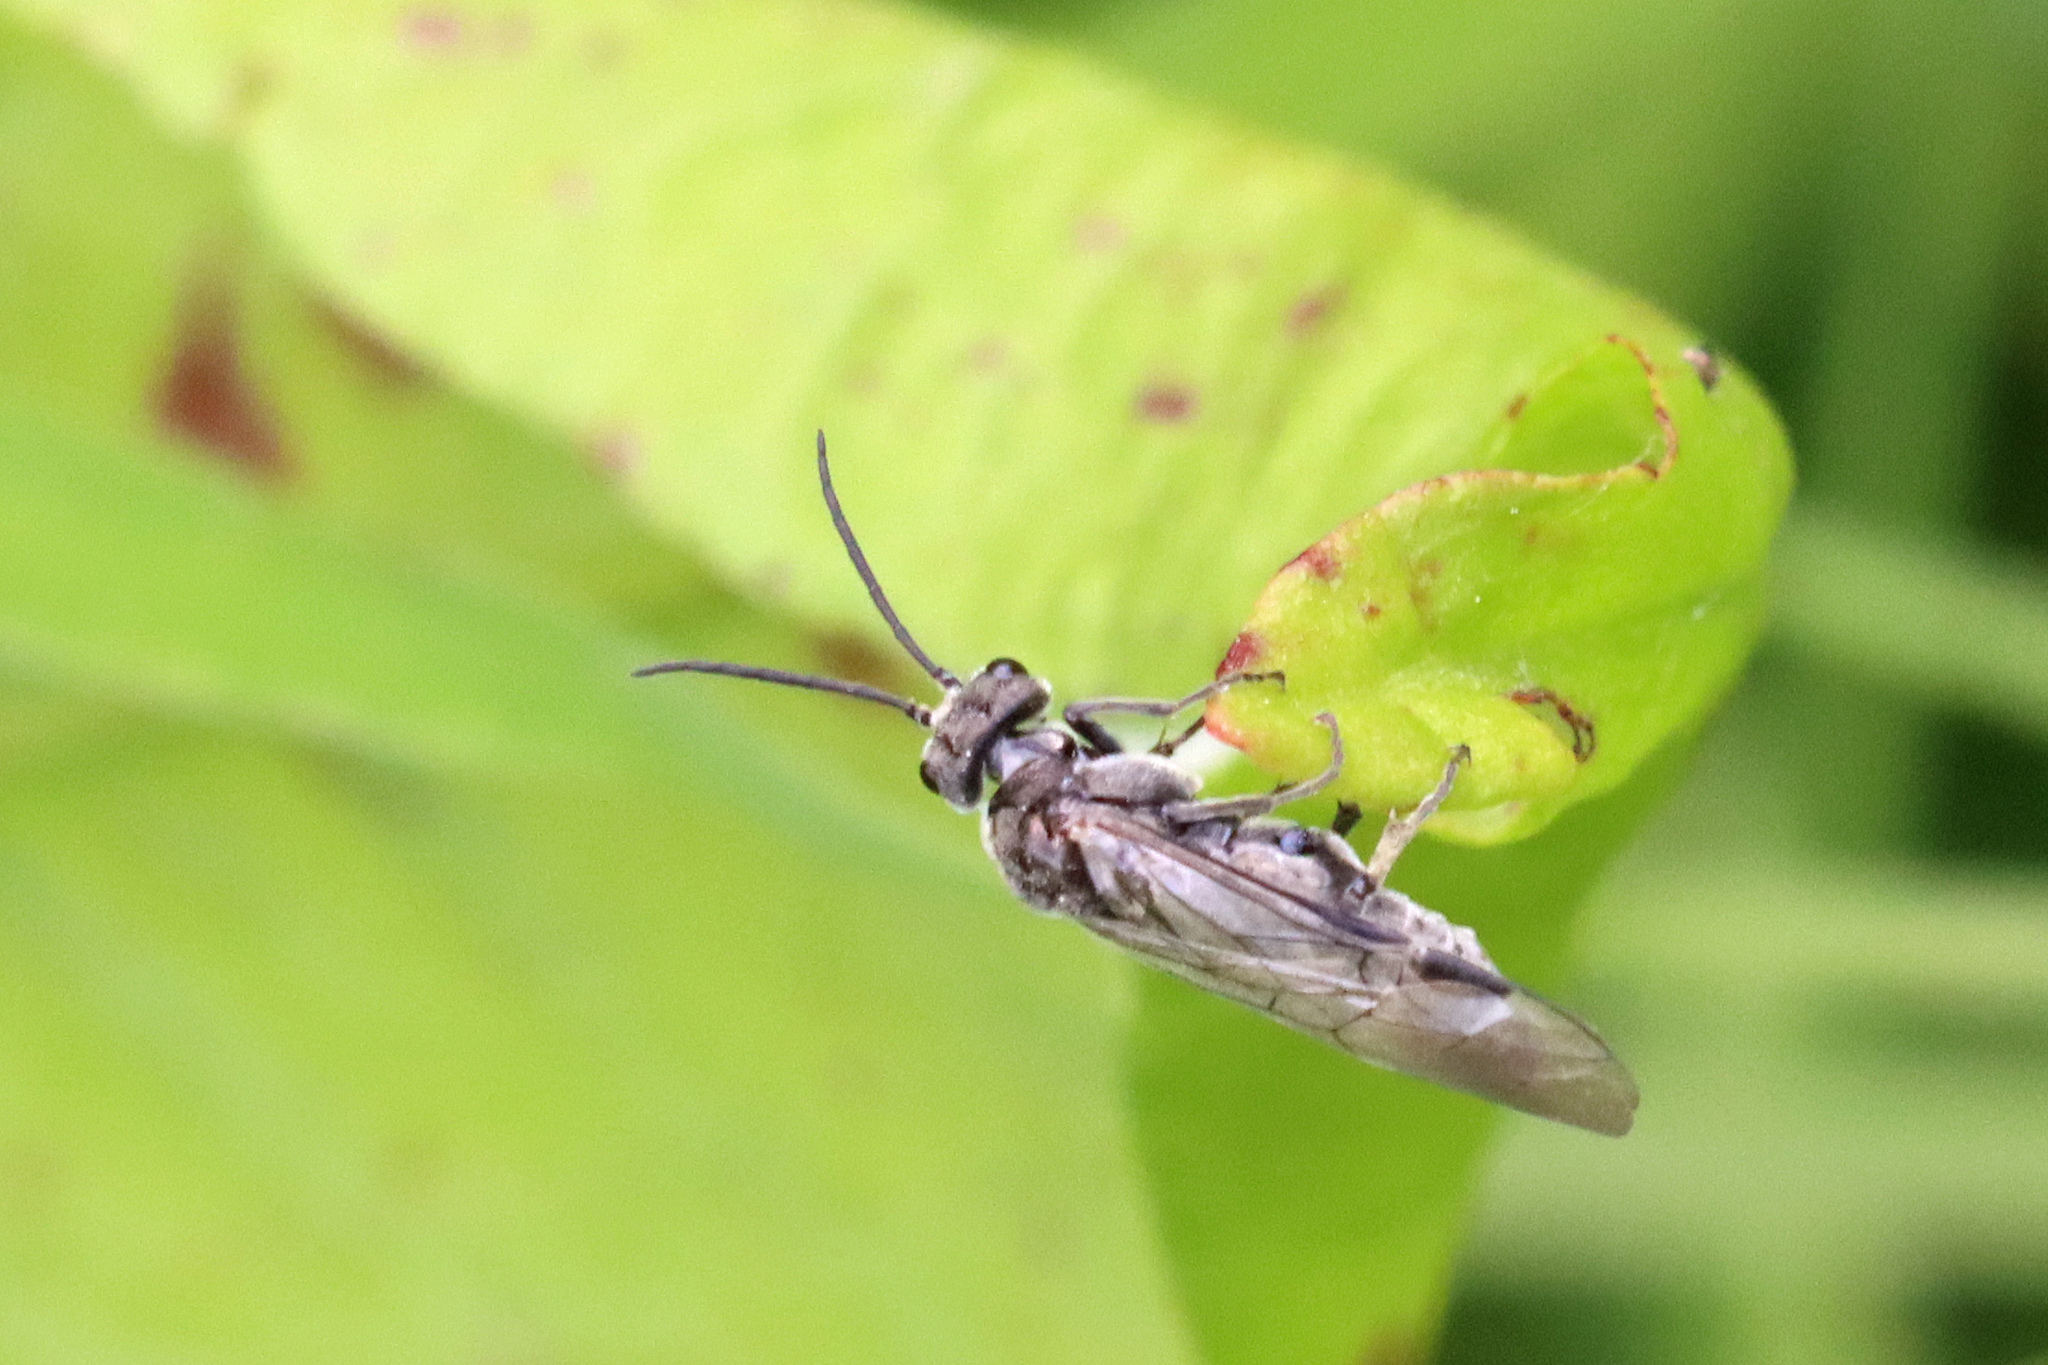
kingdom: Animalia
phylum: Arthropoda
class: Insecta
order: Hymenoptera
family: Tenthredinidae
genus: Dolerus
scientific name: Dolerus
